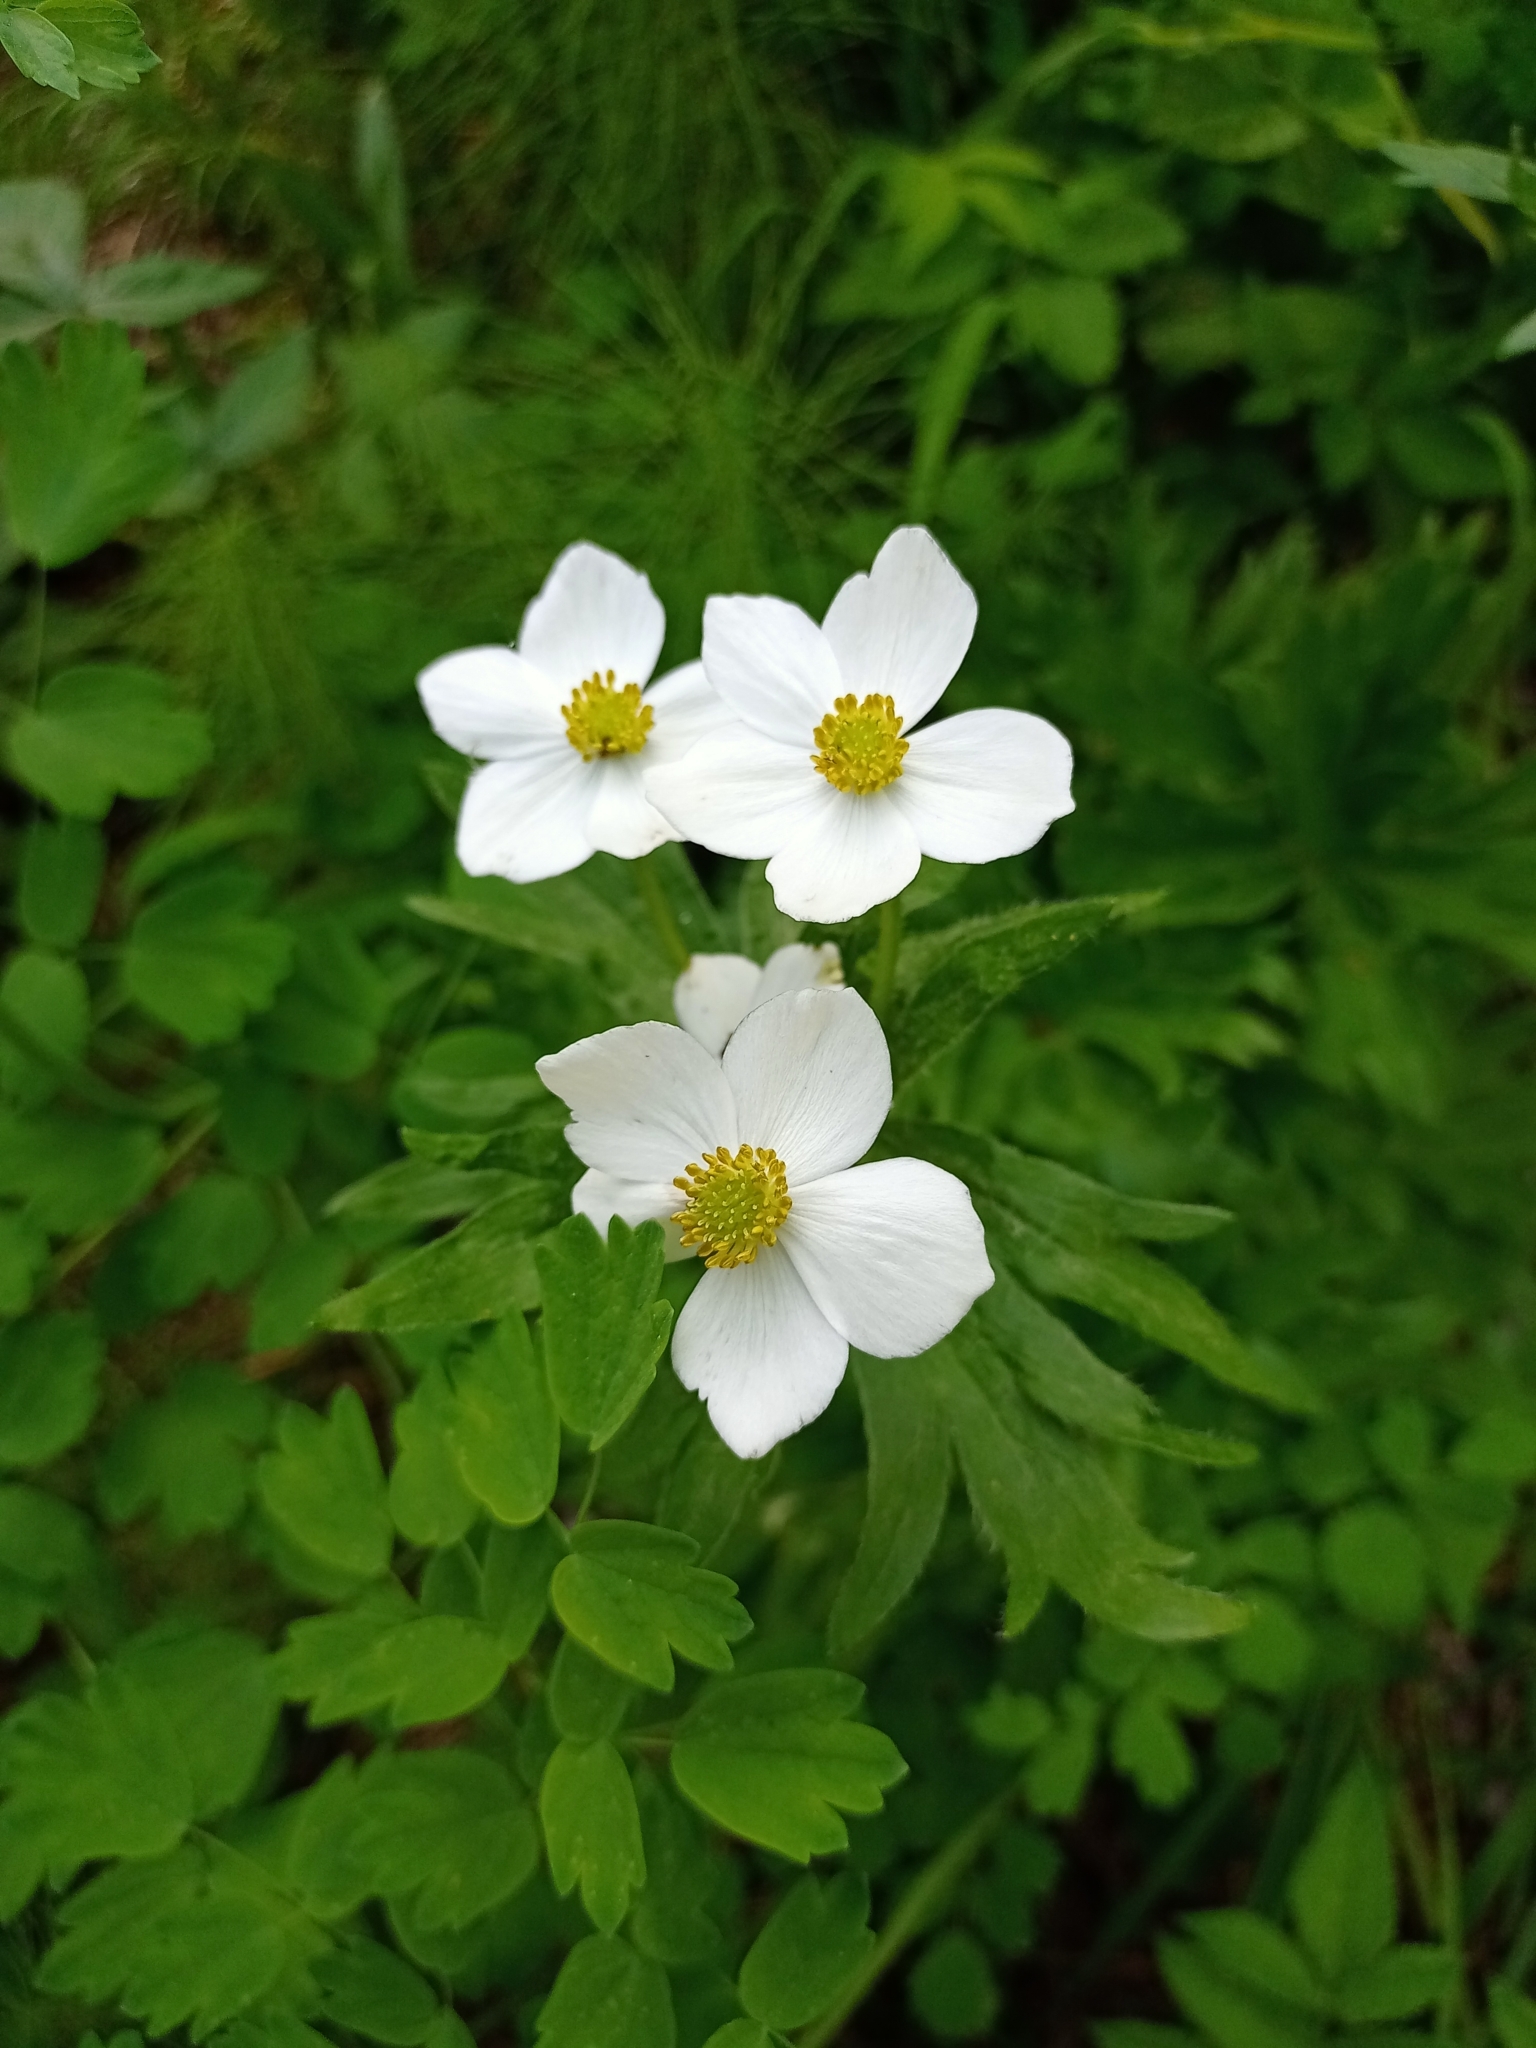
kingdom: Plantae
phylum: Tracheophyta
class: Magnoliopsida
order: Ranunculales
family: Ranunculaceae
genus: Anemonastrum
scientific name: Anemonastrum narcissiflorum
